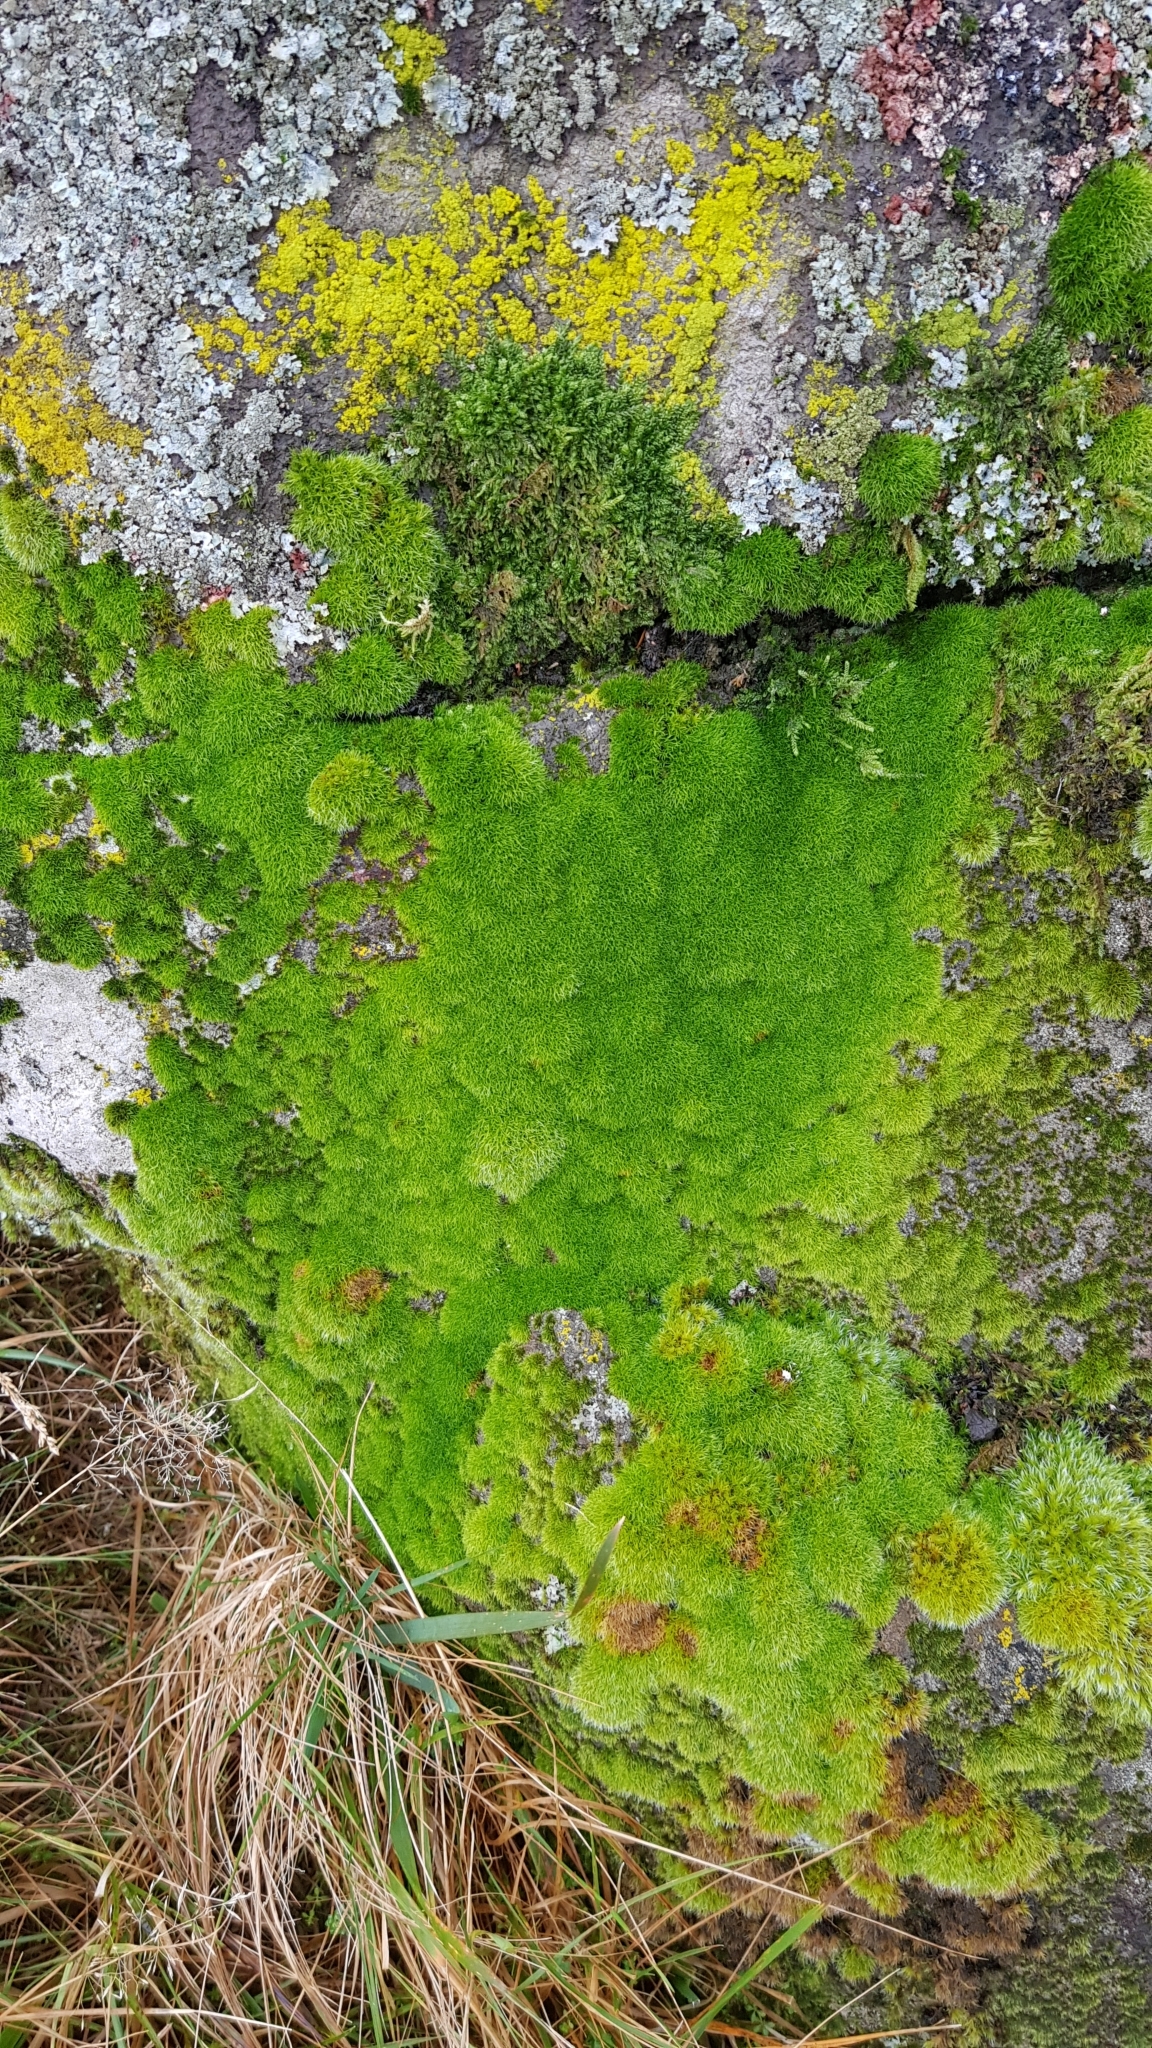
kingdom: Plantae
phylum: Bryophyta
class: Bryopsida
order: Grimmiales
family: Grimmiaceae
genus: Grimmia
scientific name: Grimmia trichophylla
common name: Hair-pointed grimmia
